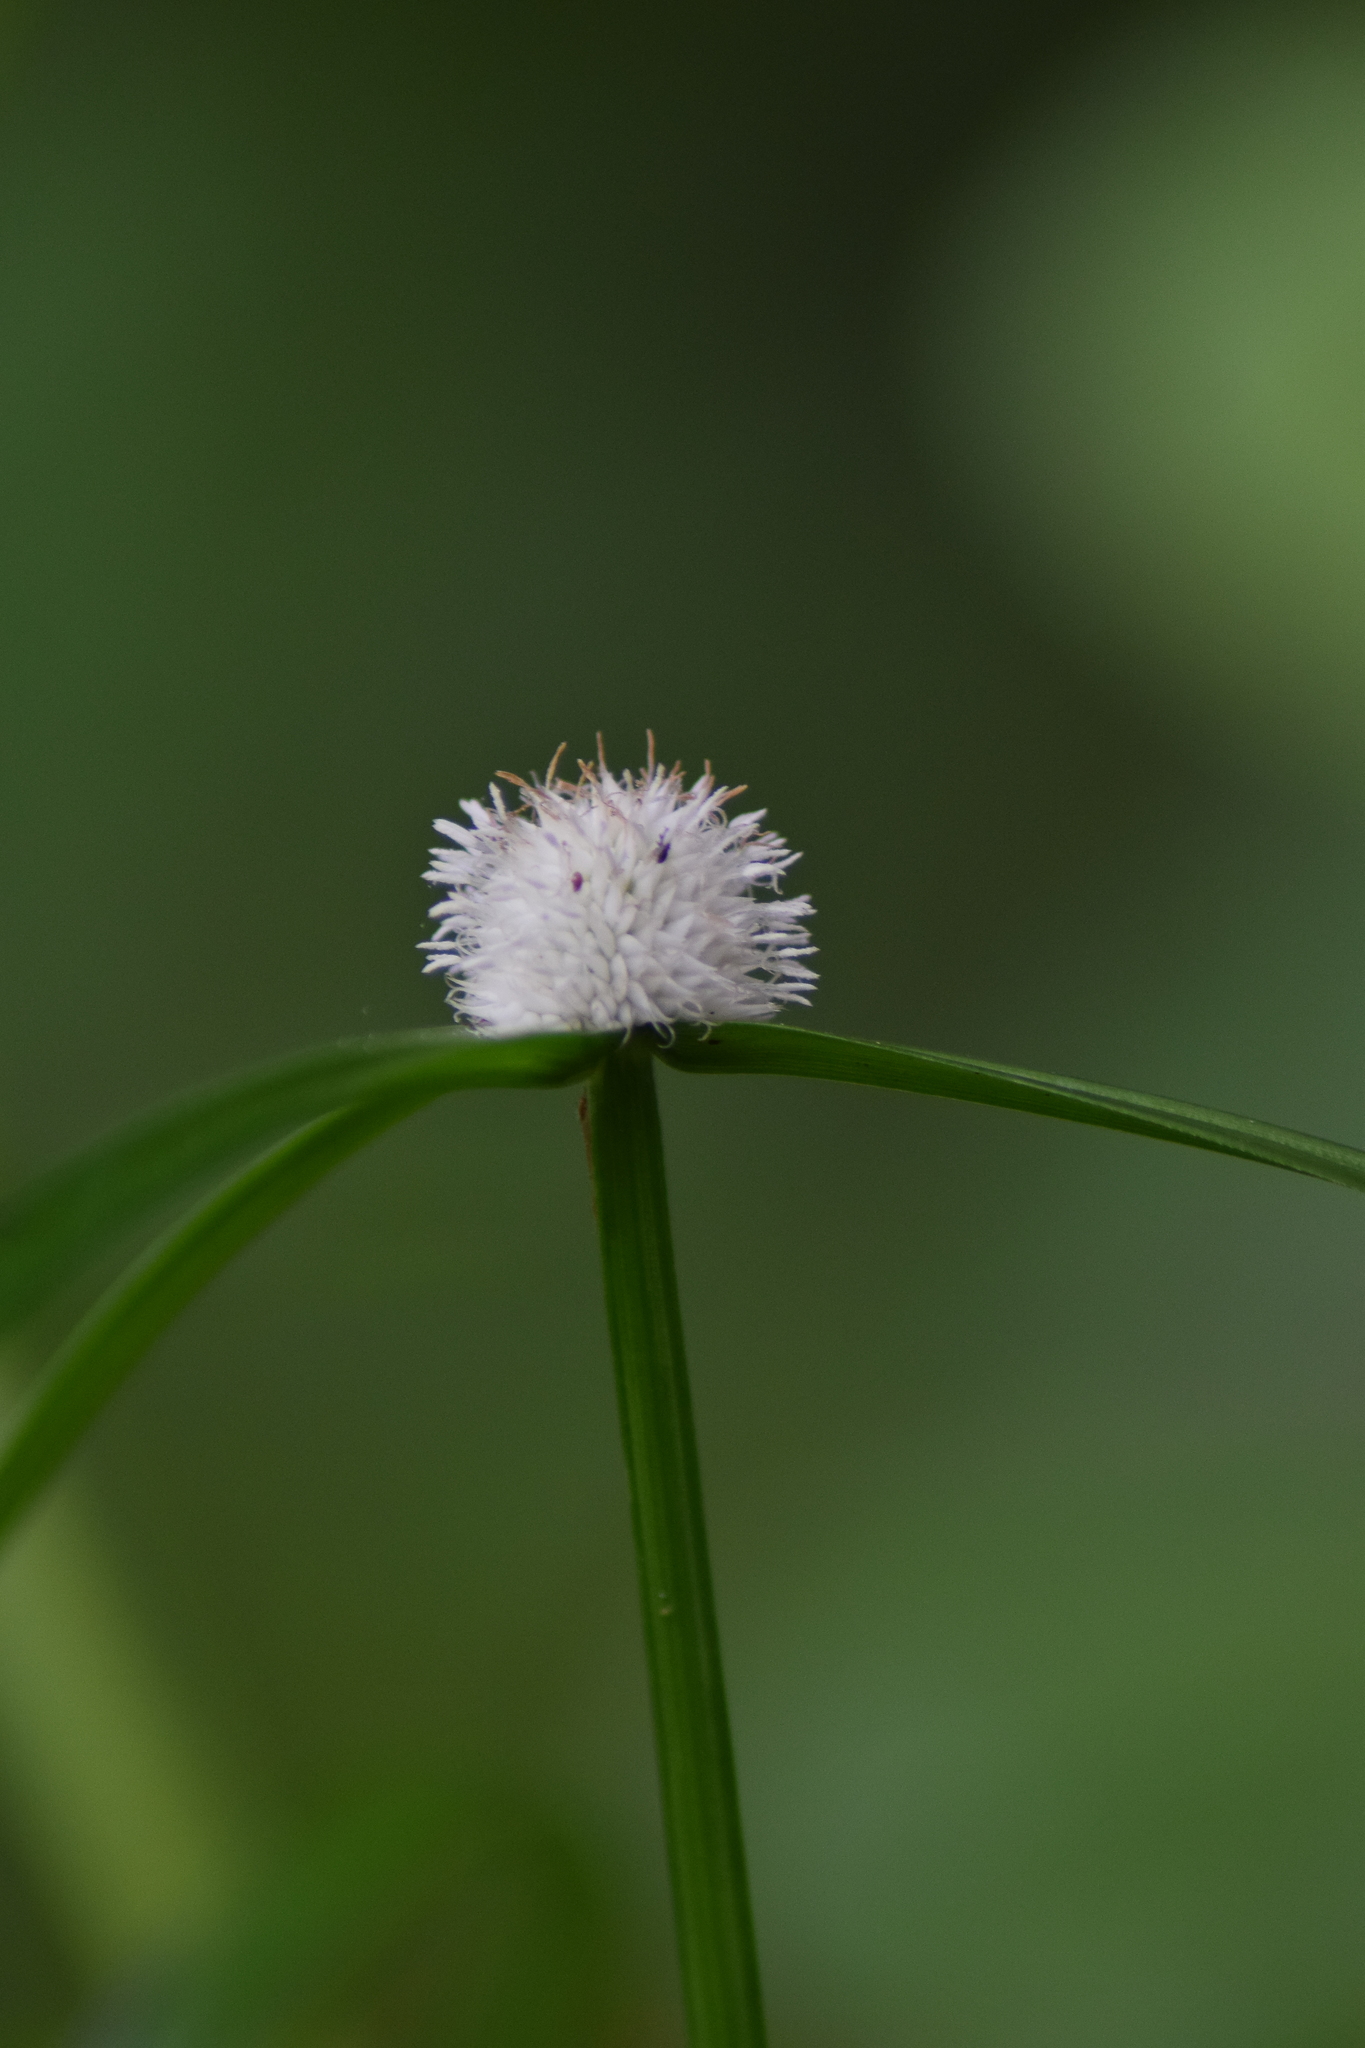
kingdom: Plantae
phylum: Tracheophyta
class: Liliopsida
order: Poales
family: Cyperaceae
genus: Cyperus
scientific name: Cyperus mindorensis
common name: Flatsedge
